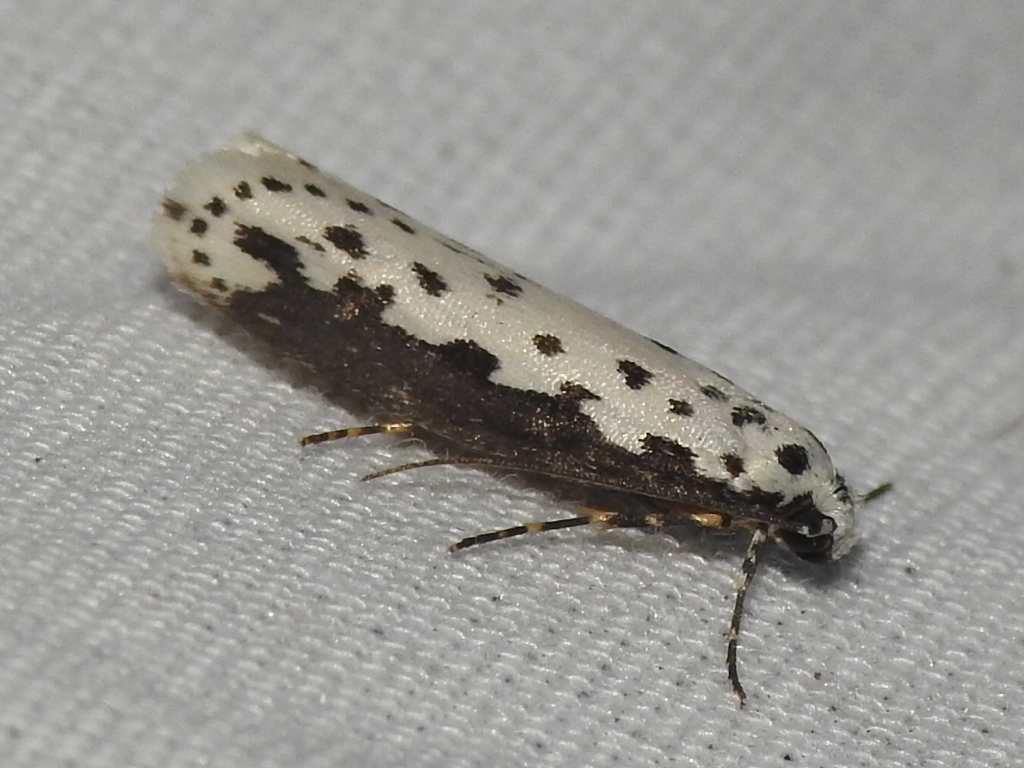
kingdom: Animalia
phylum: Arthropoda
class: Insecta
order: Lepidoptera
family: Ethmiidae
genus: Ethmia
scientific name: Ethmia hagenella
